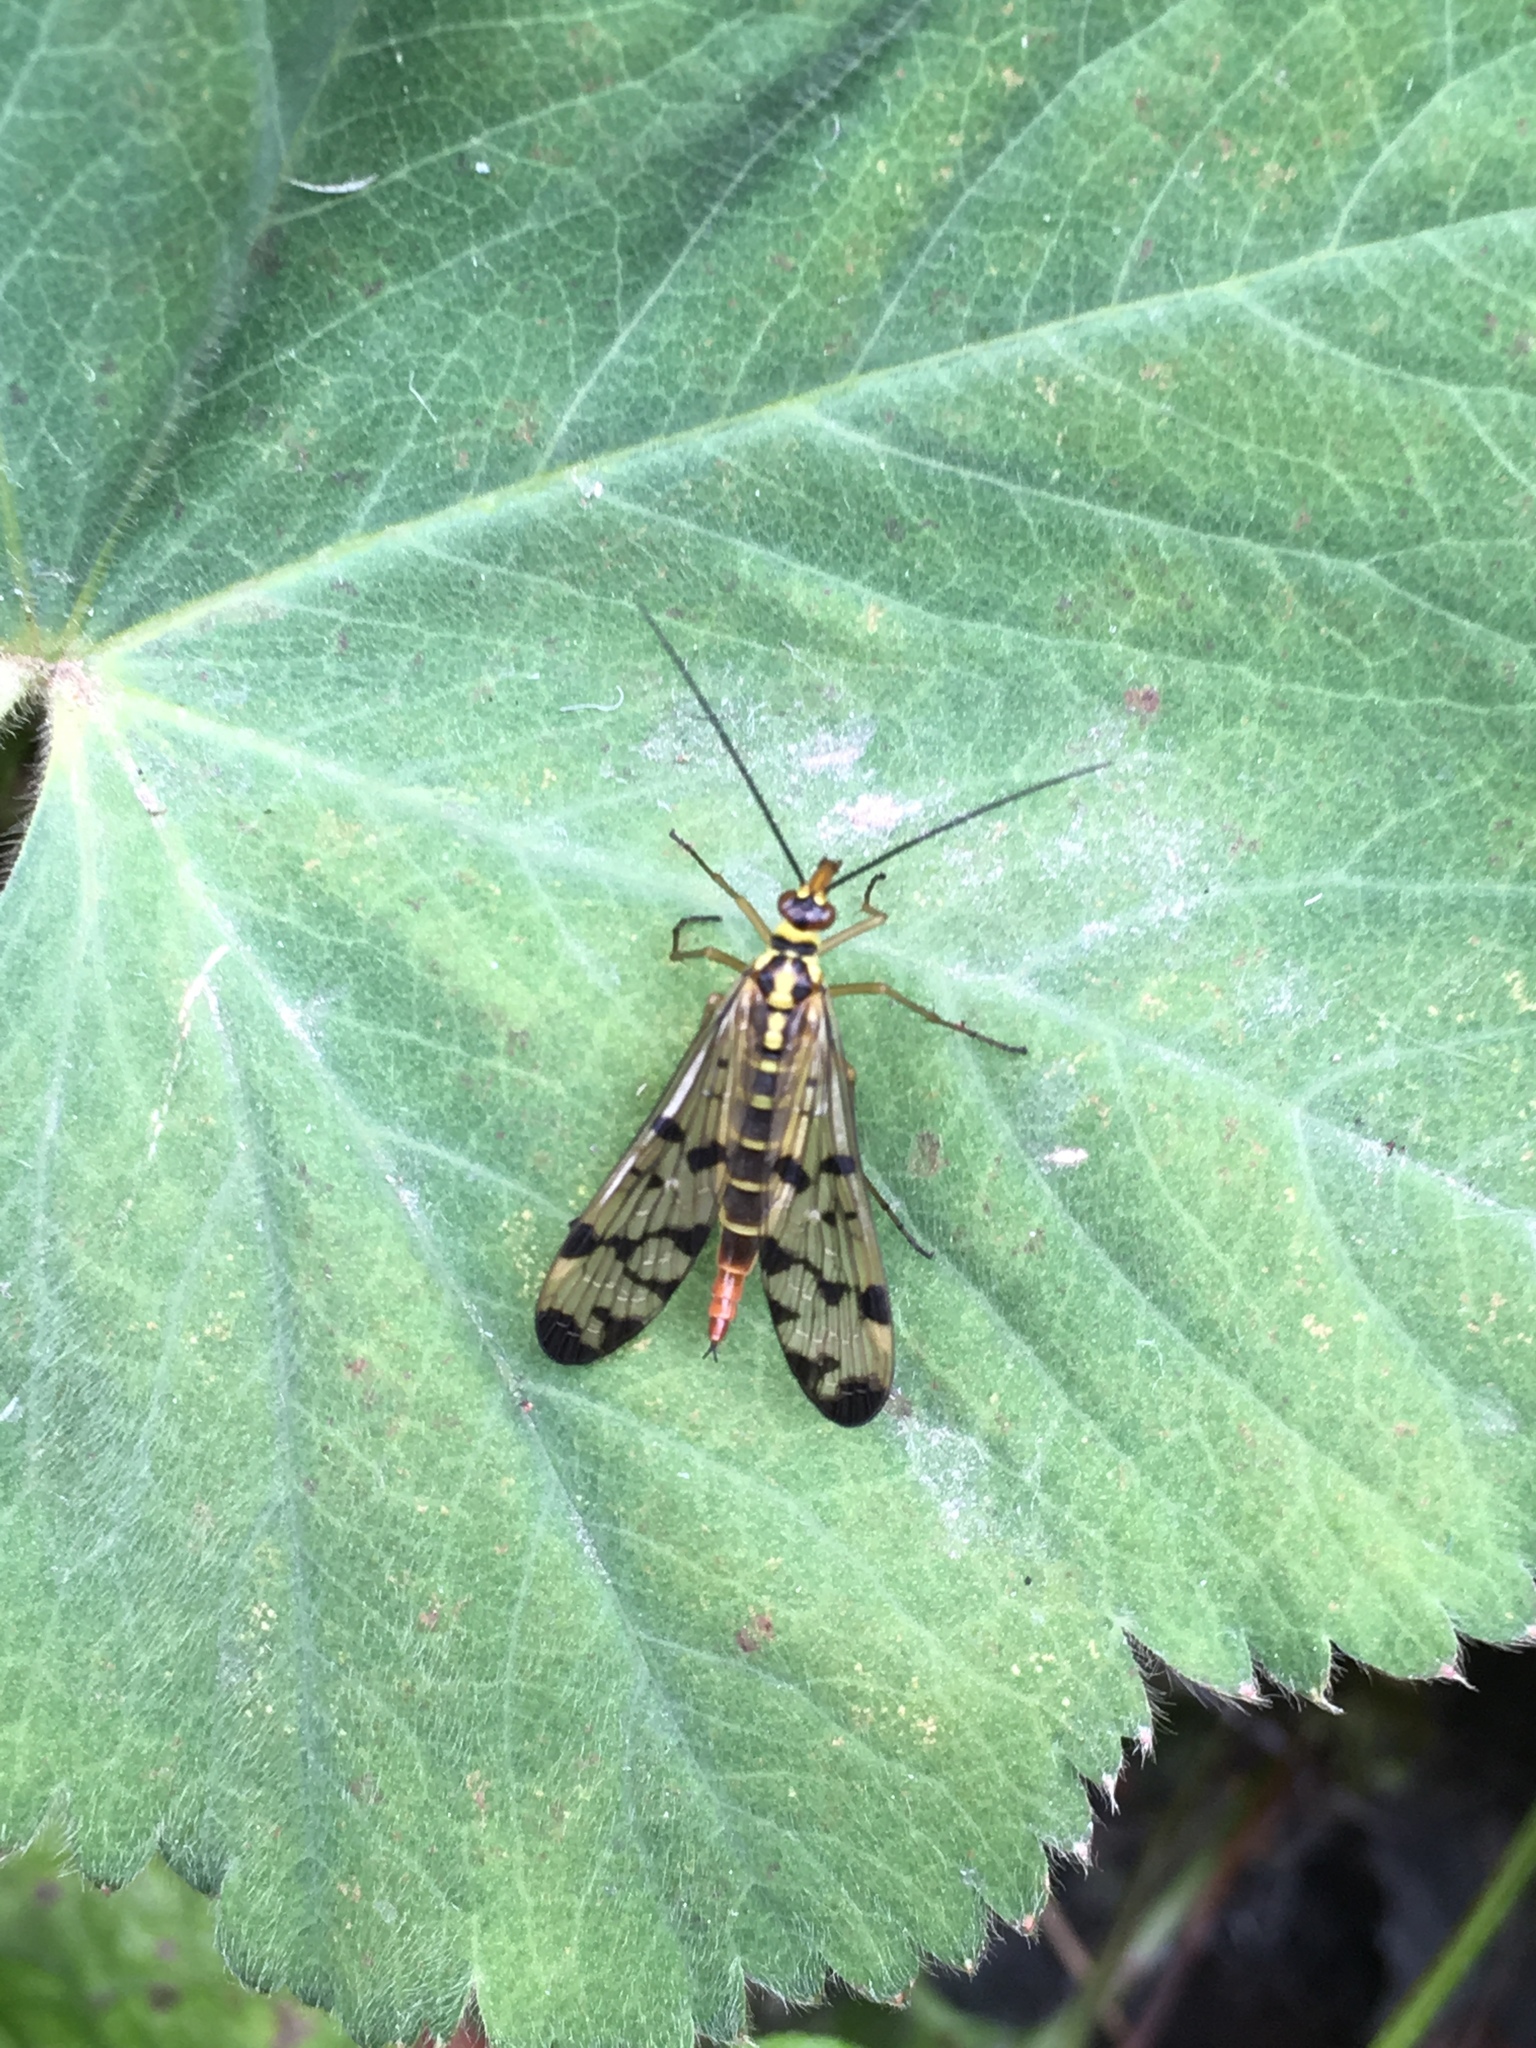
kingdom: Animalia
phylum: Arthropoda
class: Insecta
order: Mecoptera
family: Panorpidae
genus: Panorpa
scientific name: Panorpa germanica
